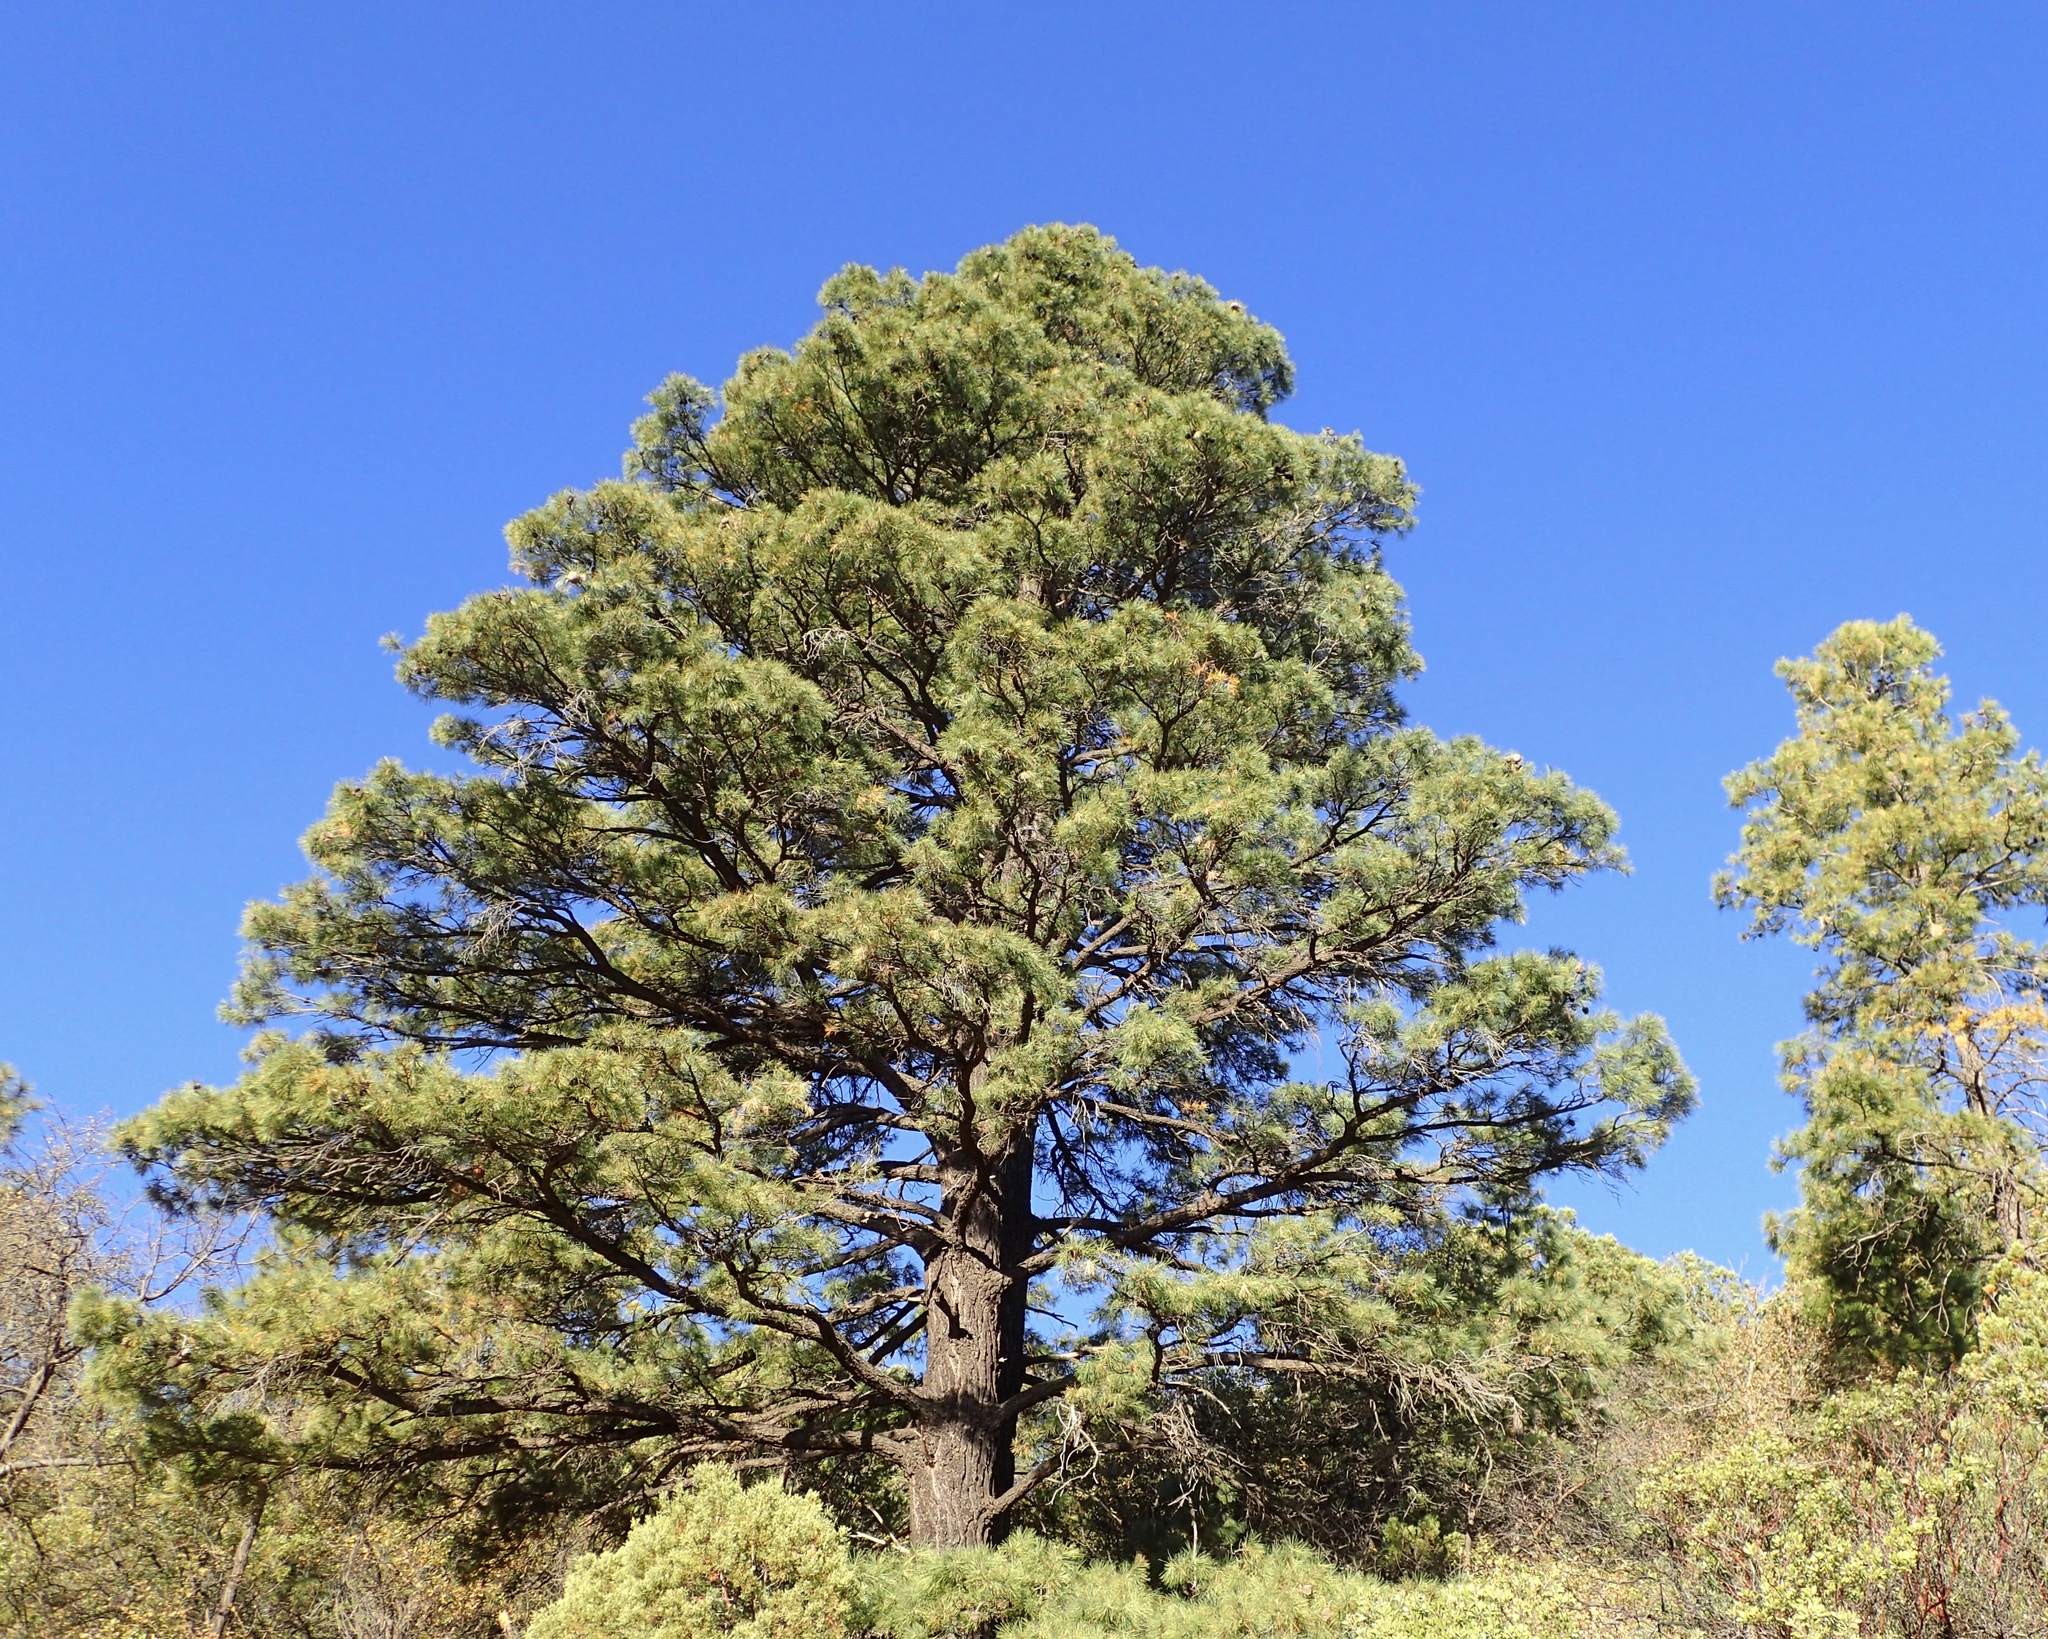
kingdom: Plantae
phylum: Tracheophyta
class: Pinopsida
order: Pinales
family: Pinaceae
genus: Pinus
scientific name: Pinus leiophylla
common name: Chihuahua pine
